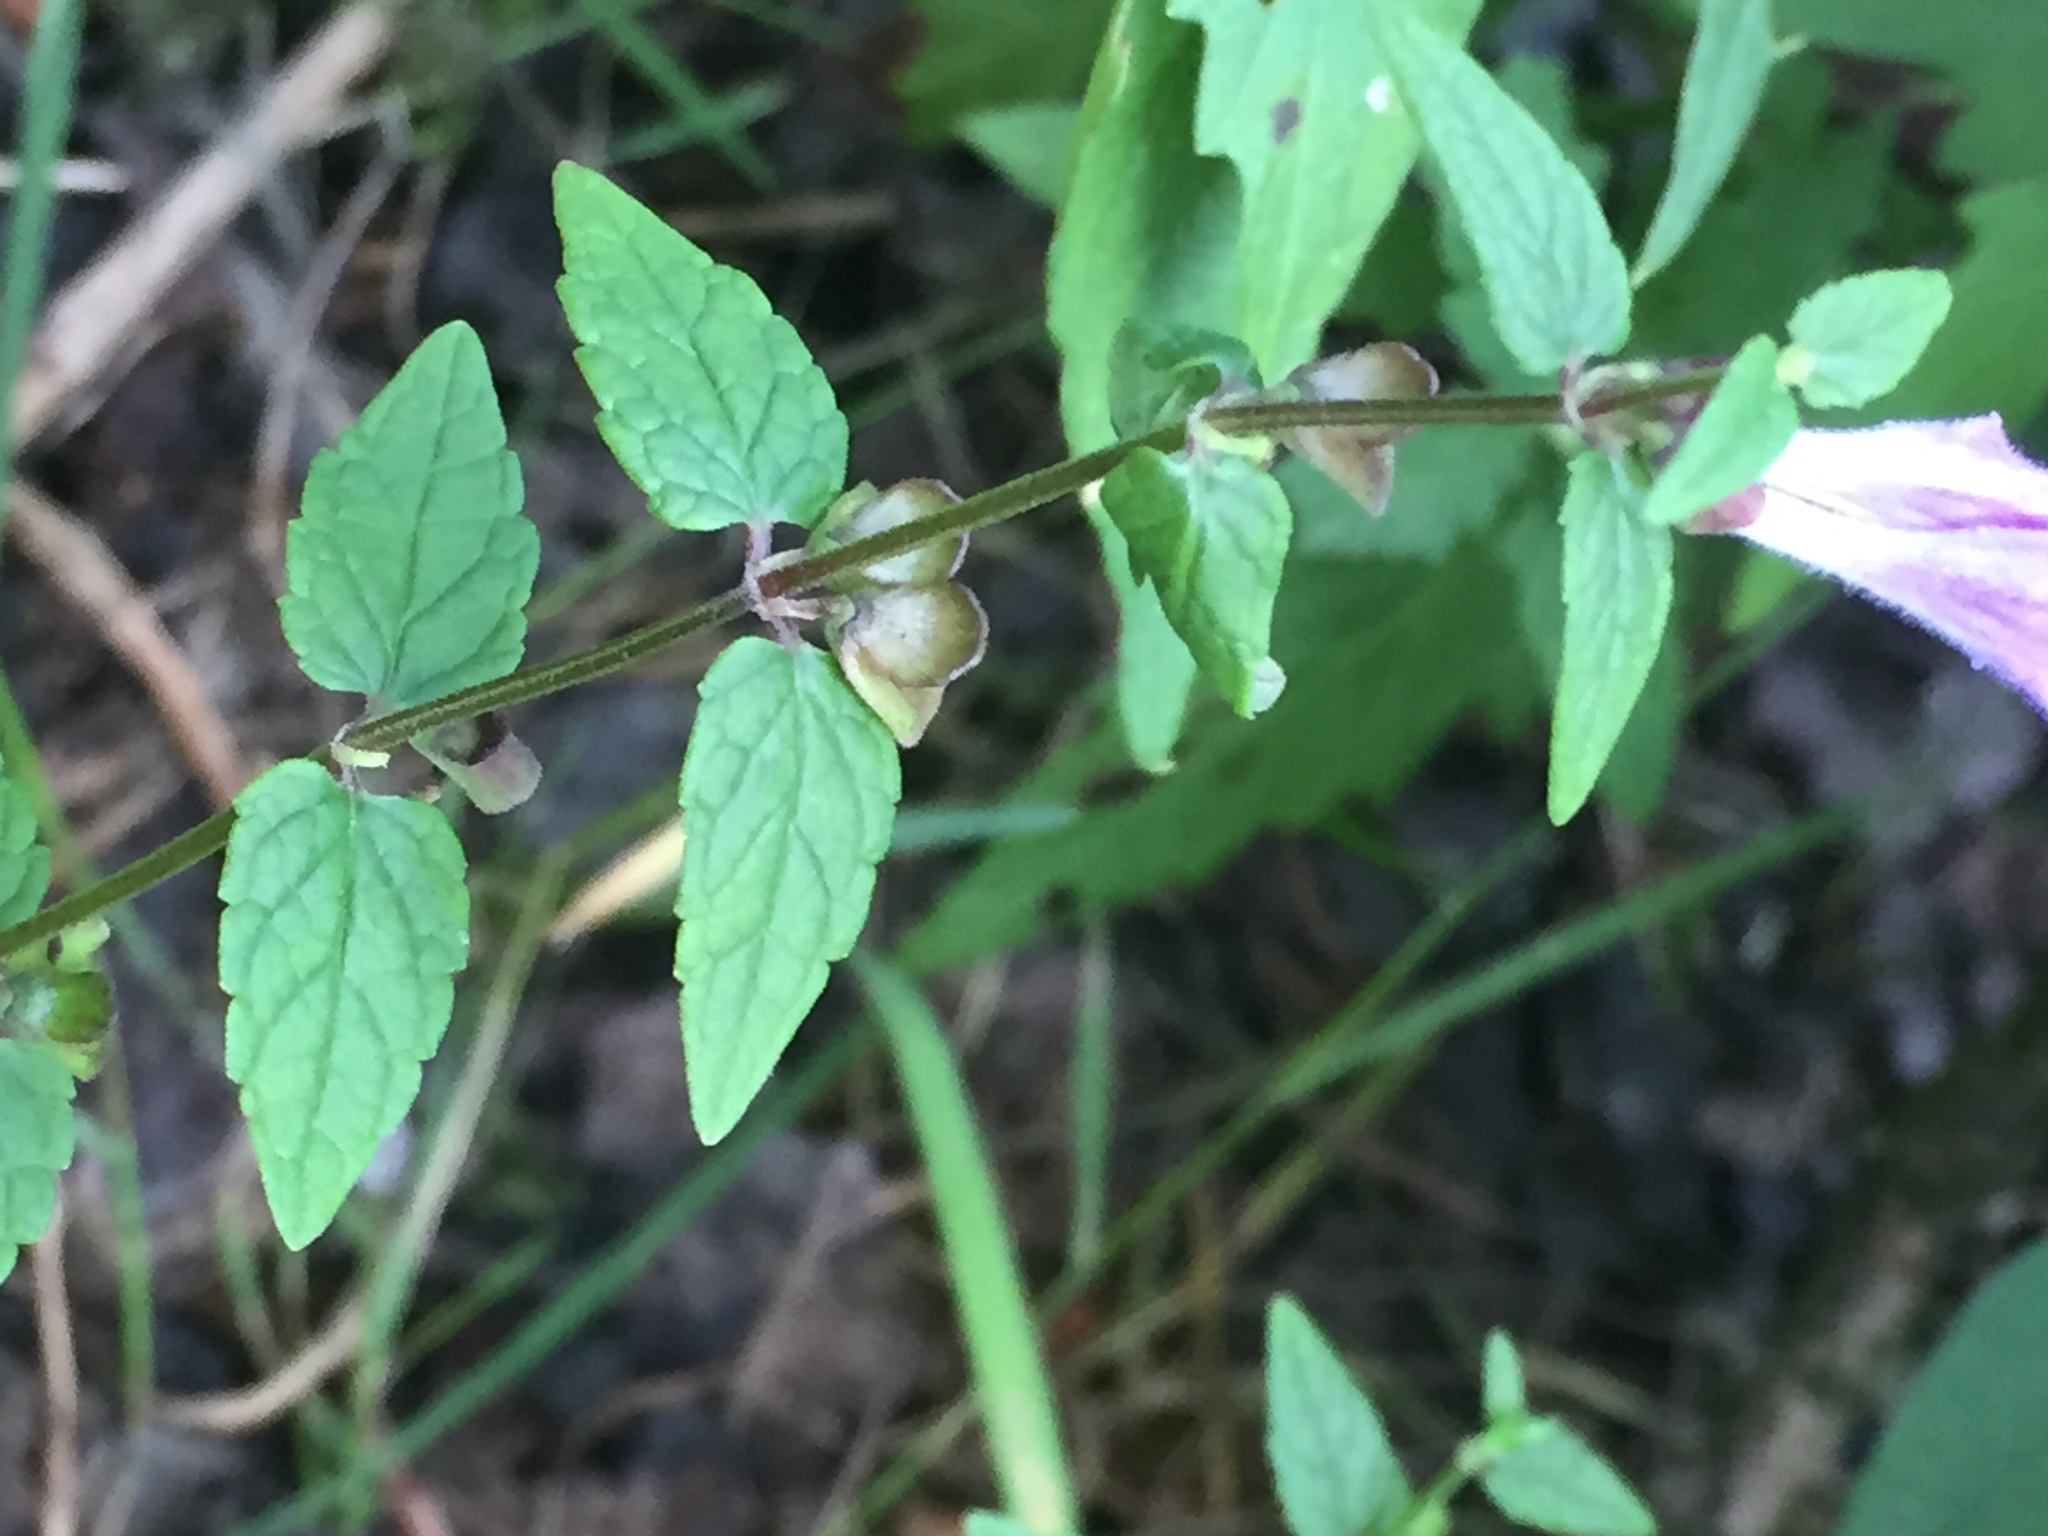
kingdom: Plantae
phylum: Tracheophyta
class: Magnoliopsida
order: Lamiales
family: Lamiaceae
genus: Scutellaria
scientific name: Scutellaria galericulata
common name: Skullcap
